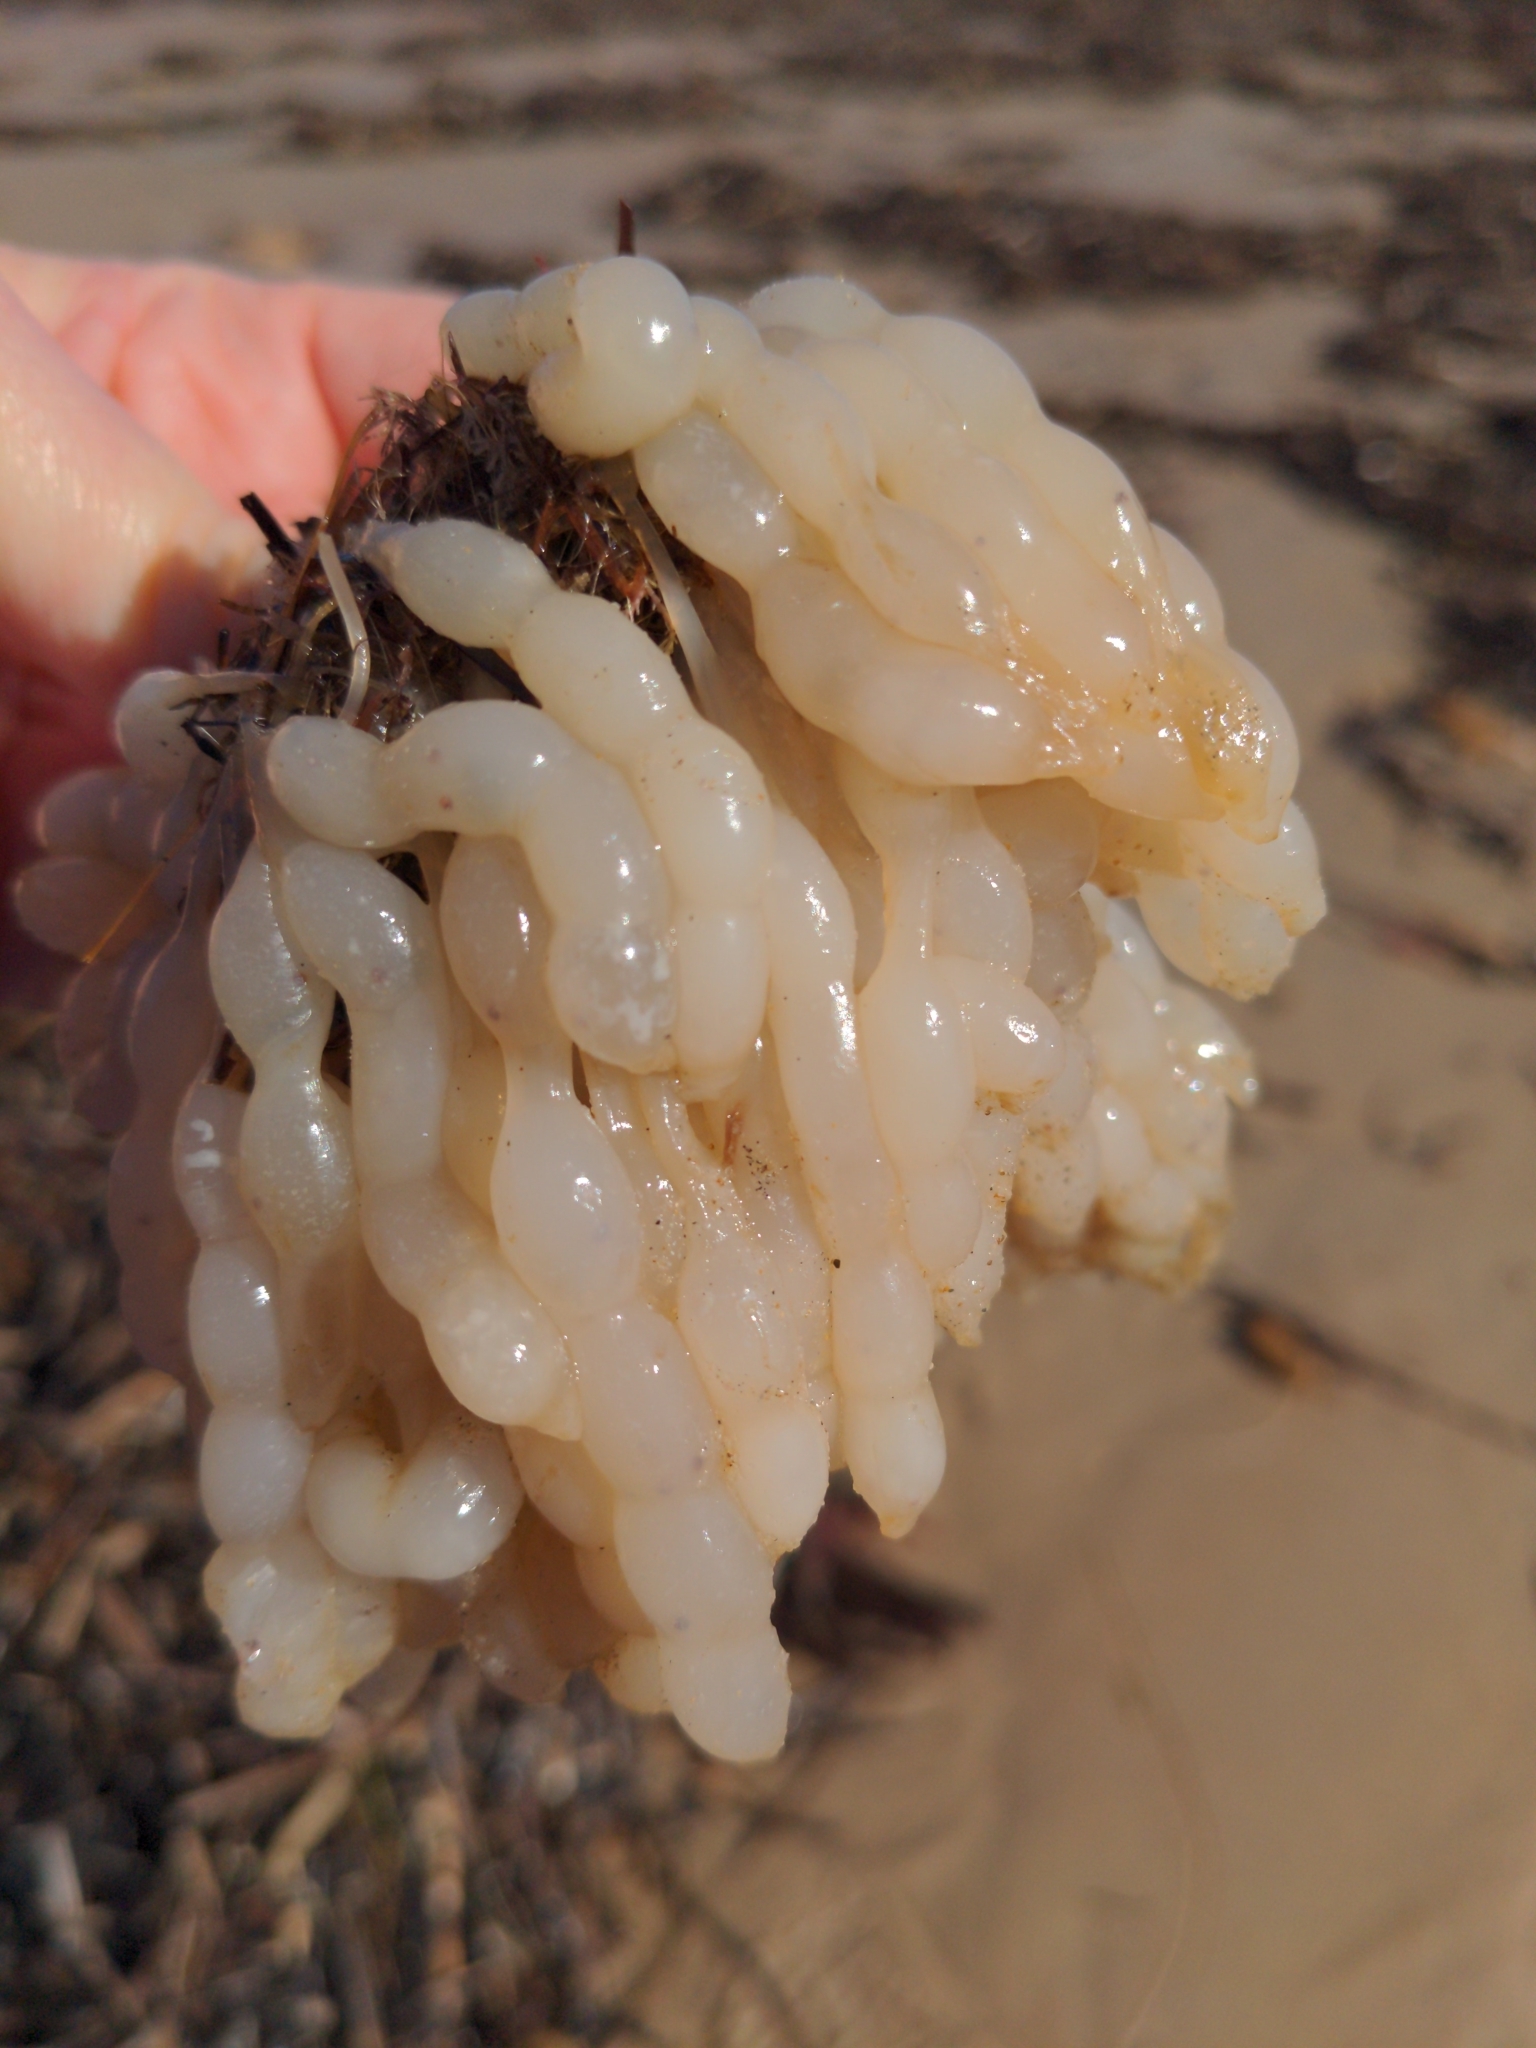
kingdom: Animalia
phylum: Mollusca
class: Cephalopoda
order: Myopsida
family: Loliginidae
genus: Sepioteuthis
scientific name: Sepioteuthis australis
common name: Southern reef squid
